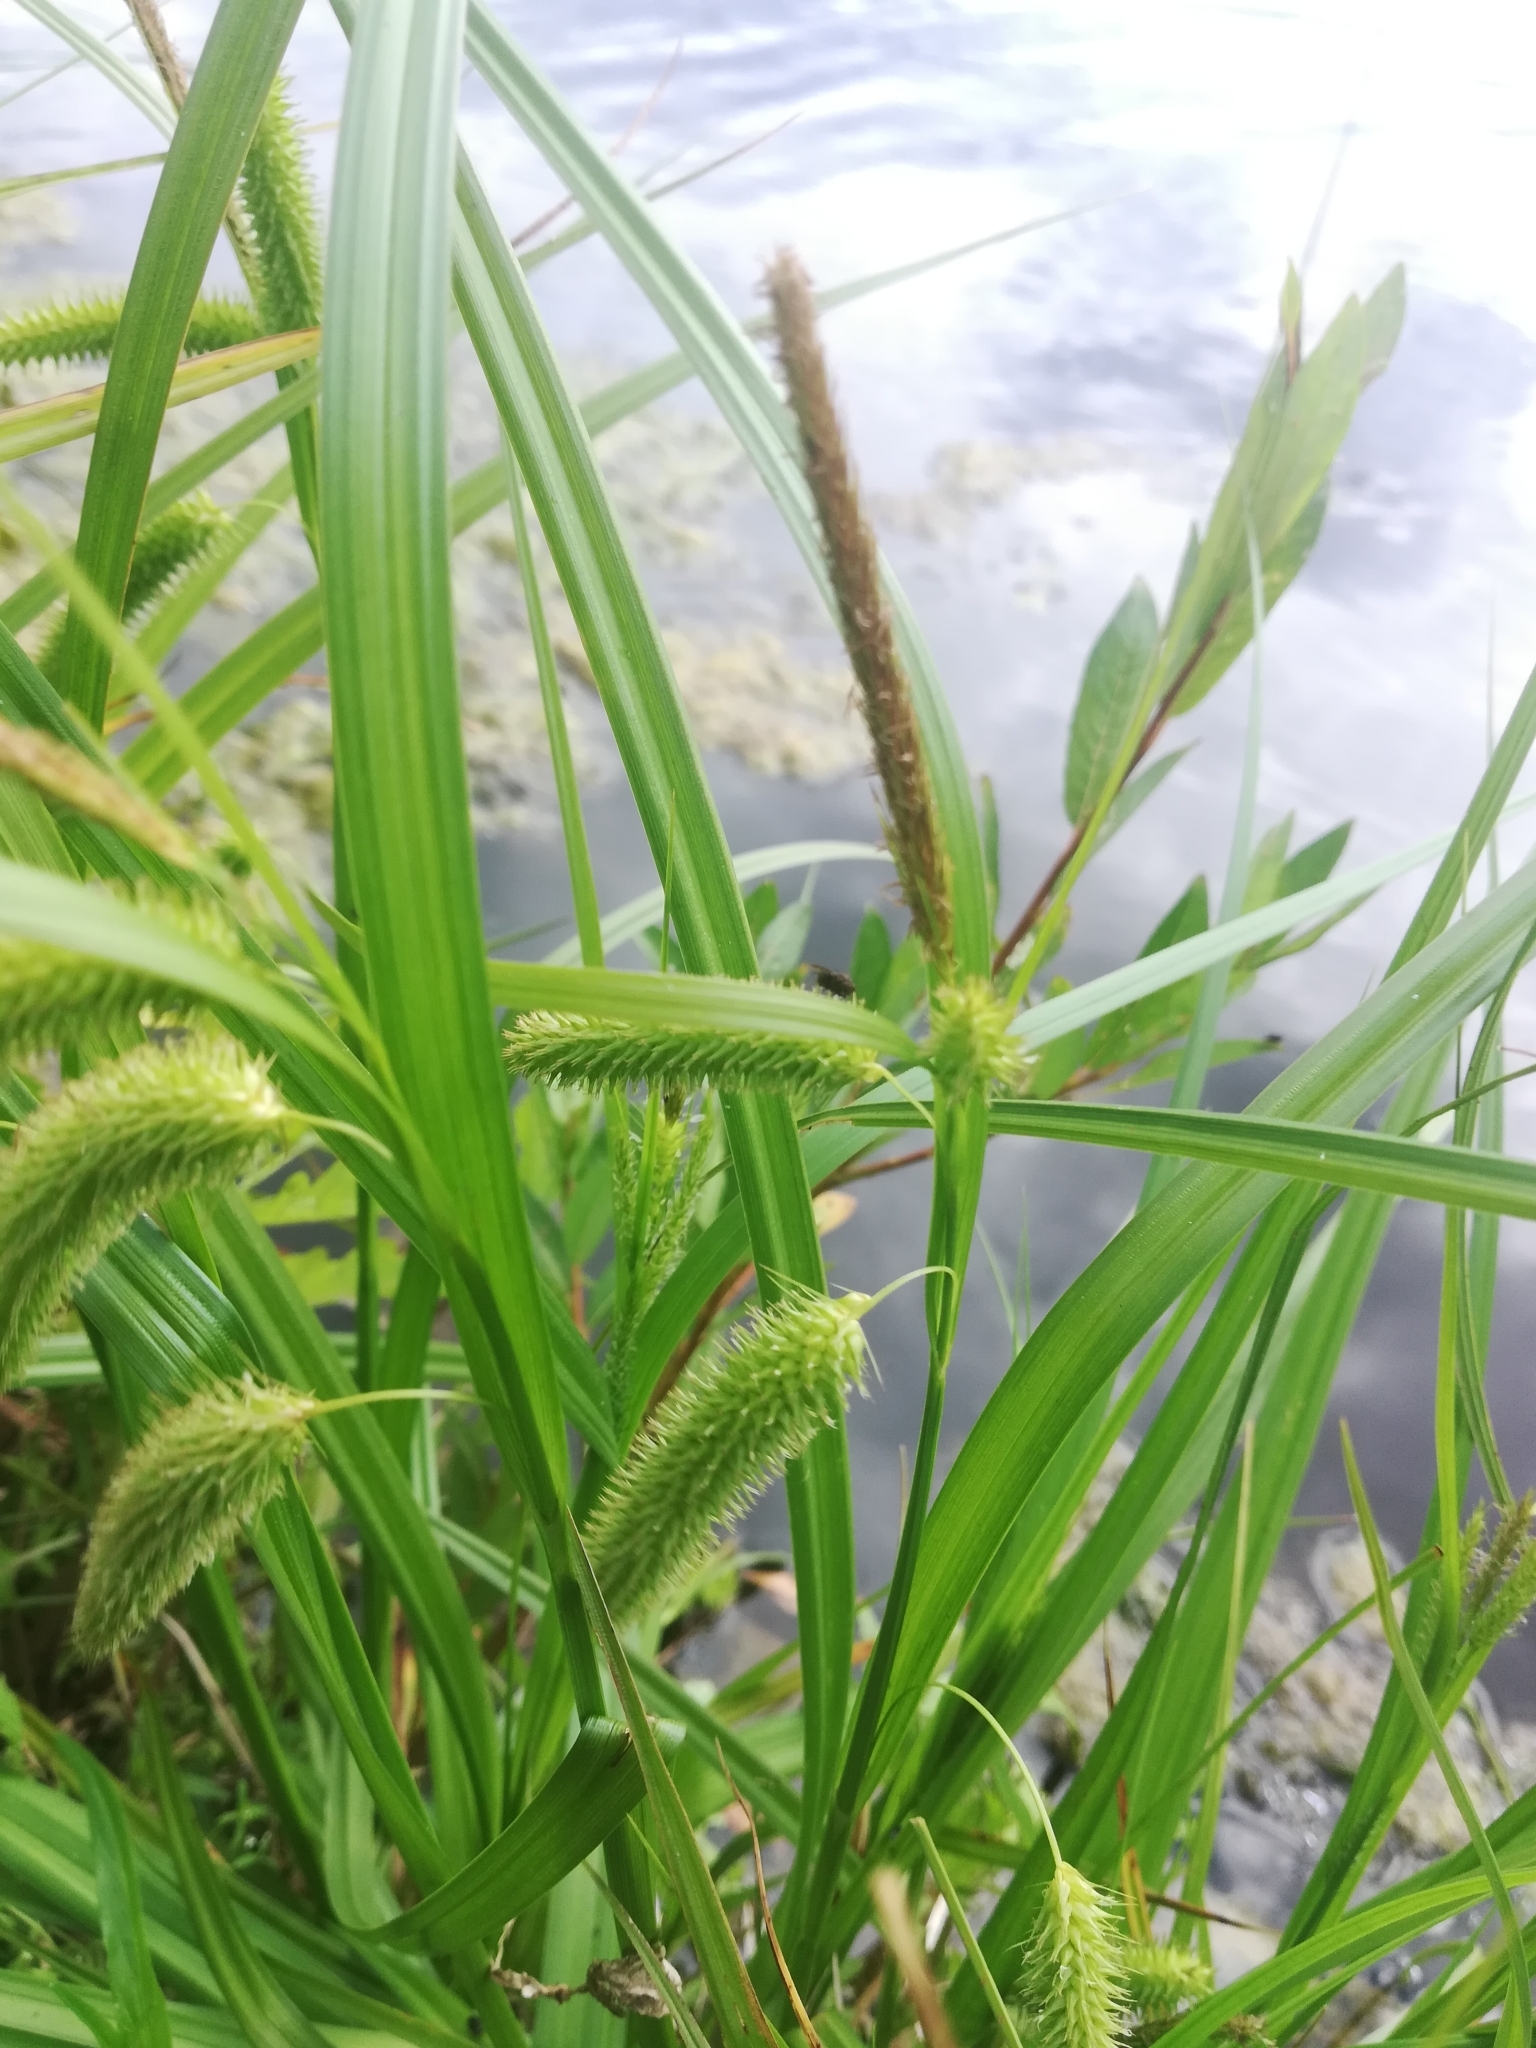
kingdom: Plantae
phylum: Tracheophyta
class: Liliopsida
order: Poales
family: Cyperaceae
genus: Carex
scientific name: Carex pseudocyperus
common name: Cyperus sedge
